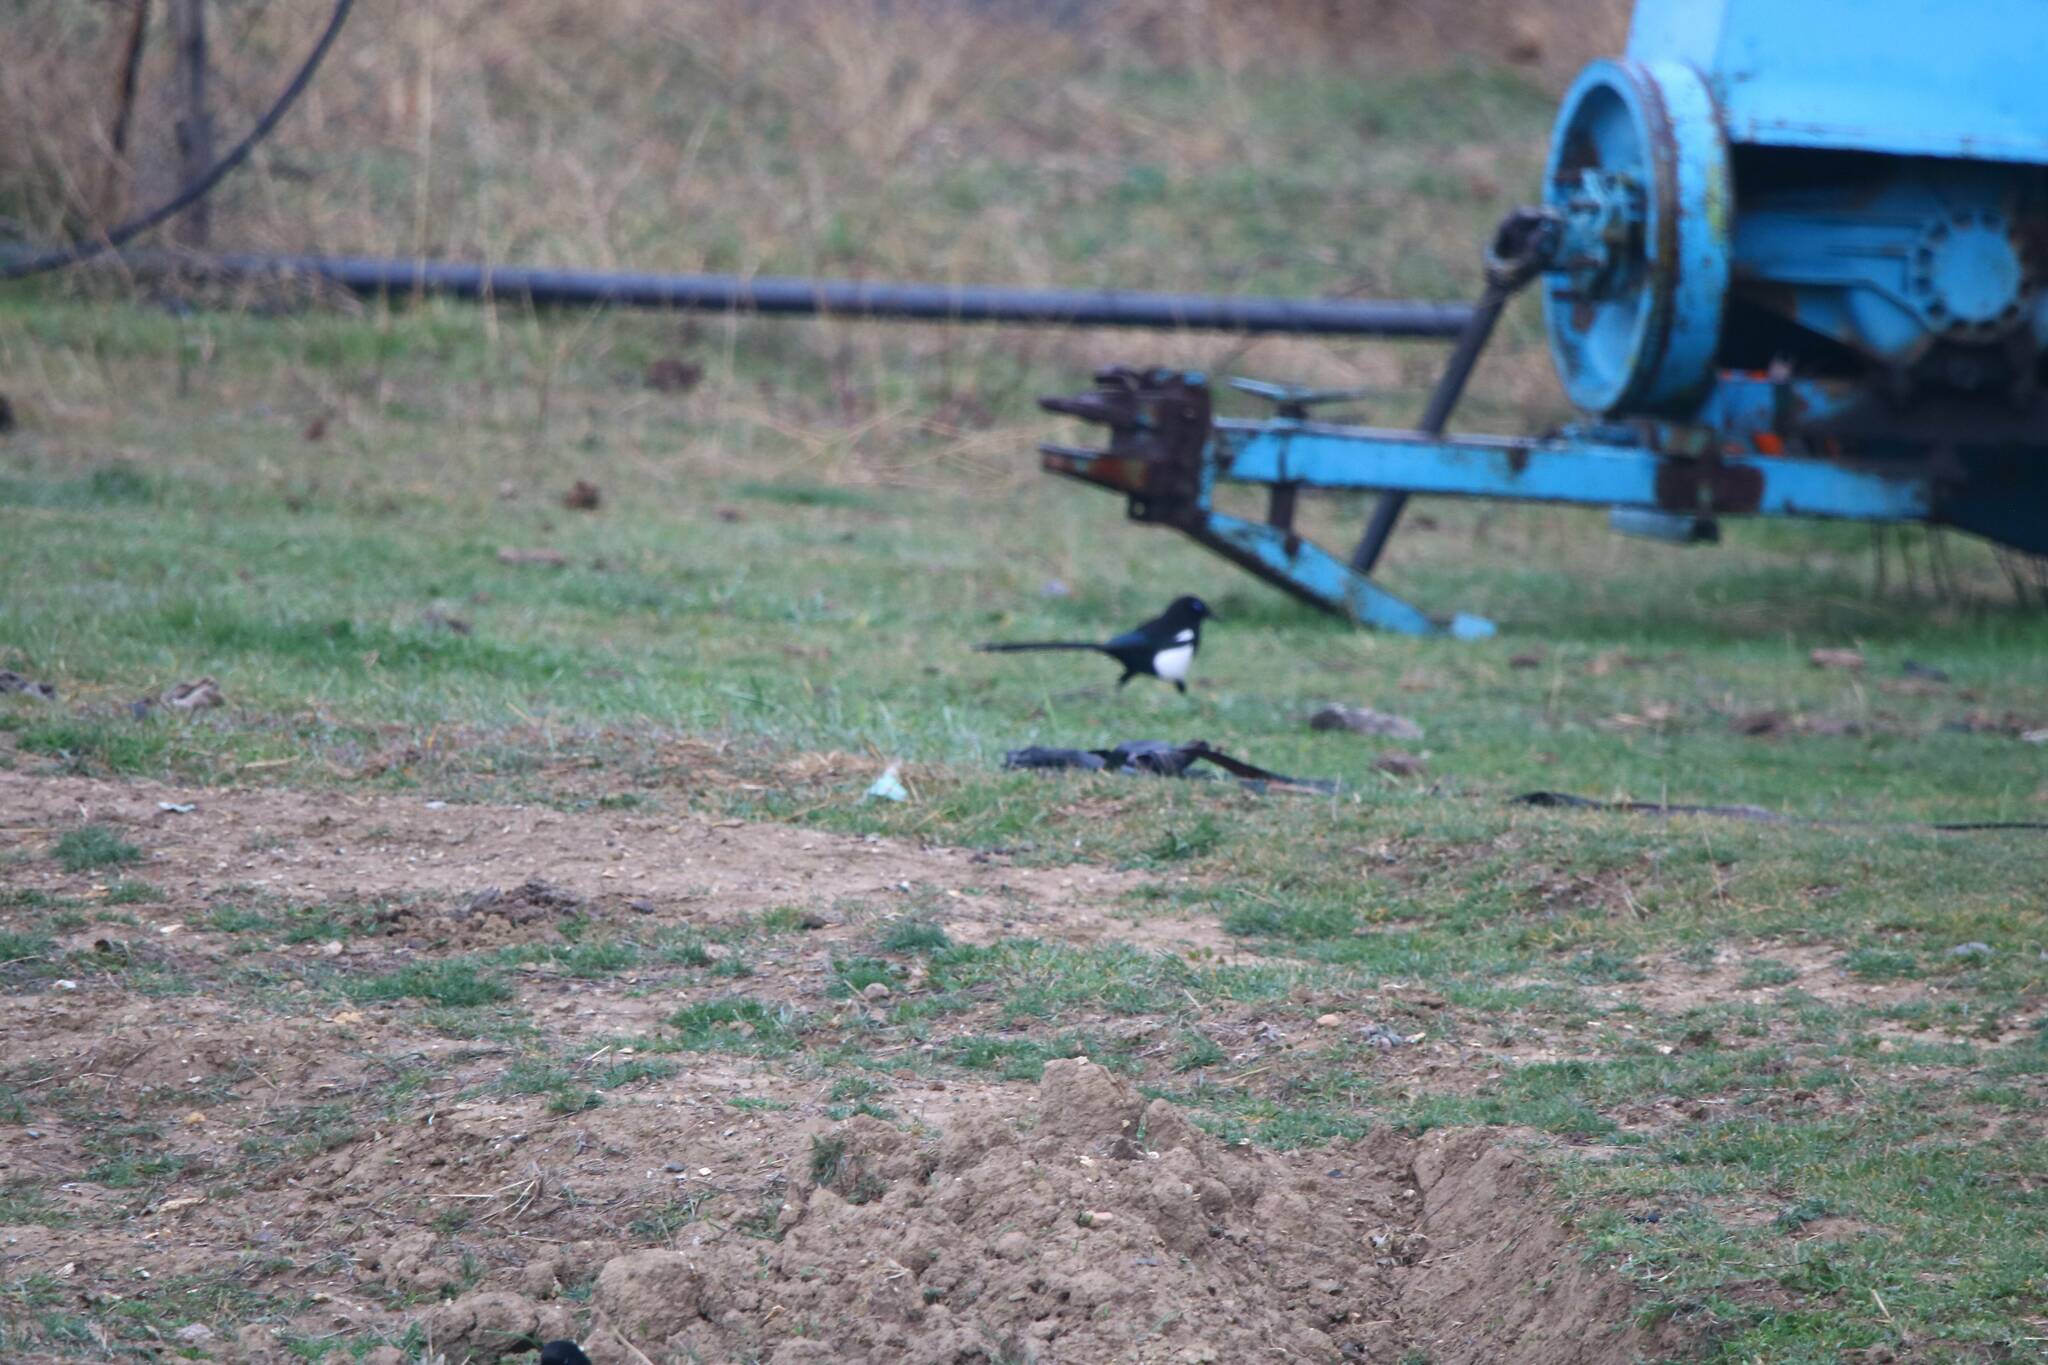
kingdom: Animalia
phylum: Chordata
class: Aves
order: Passeriformes
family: Corvidae
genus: Pica
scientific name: Pica mauritanica
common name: Maghreb magpie
